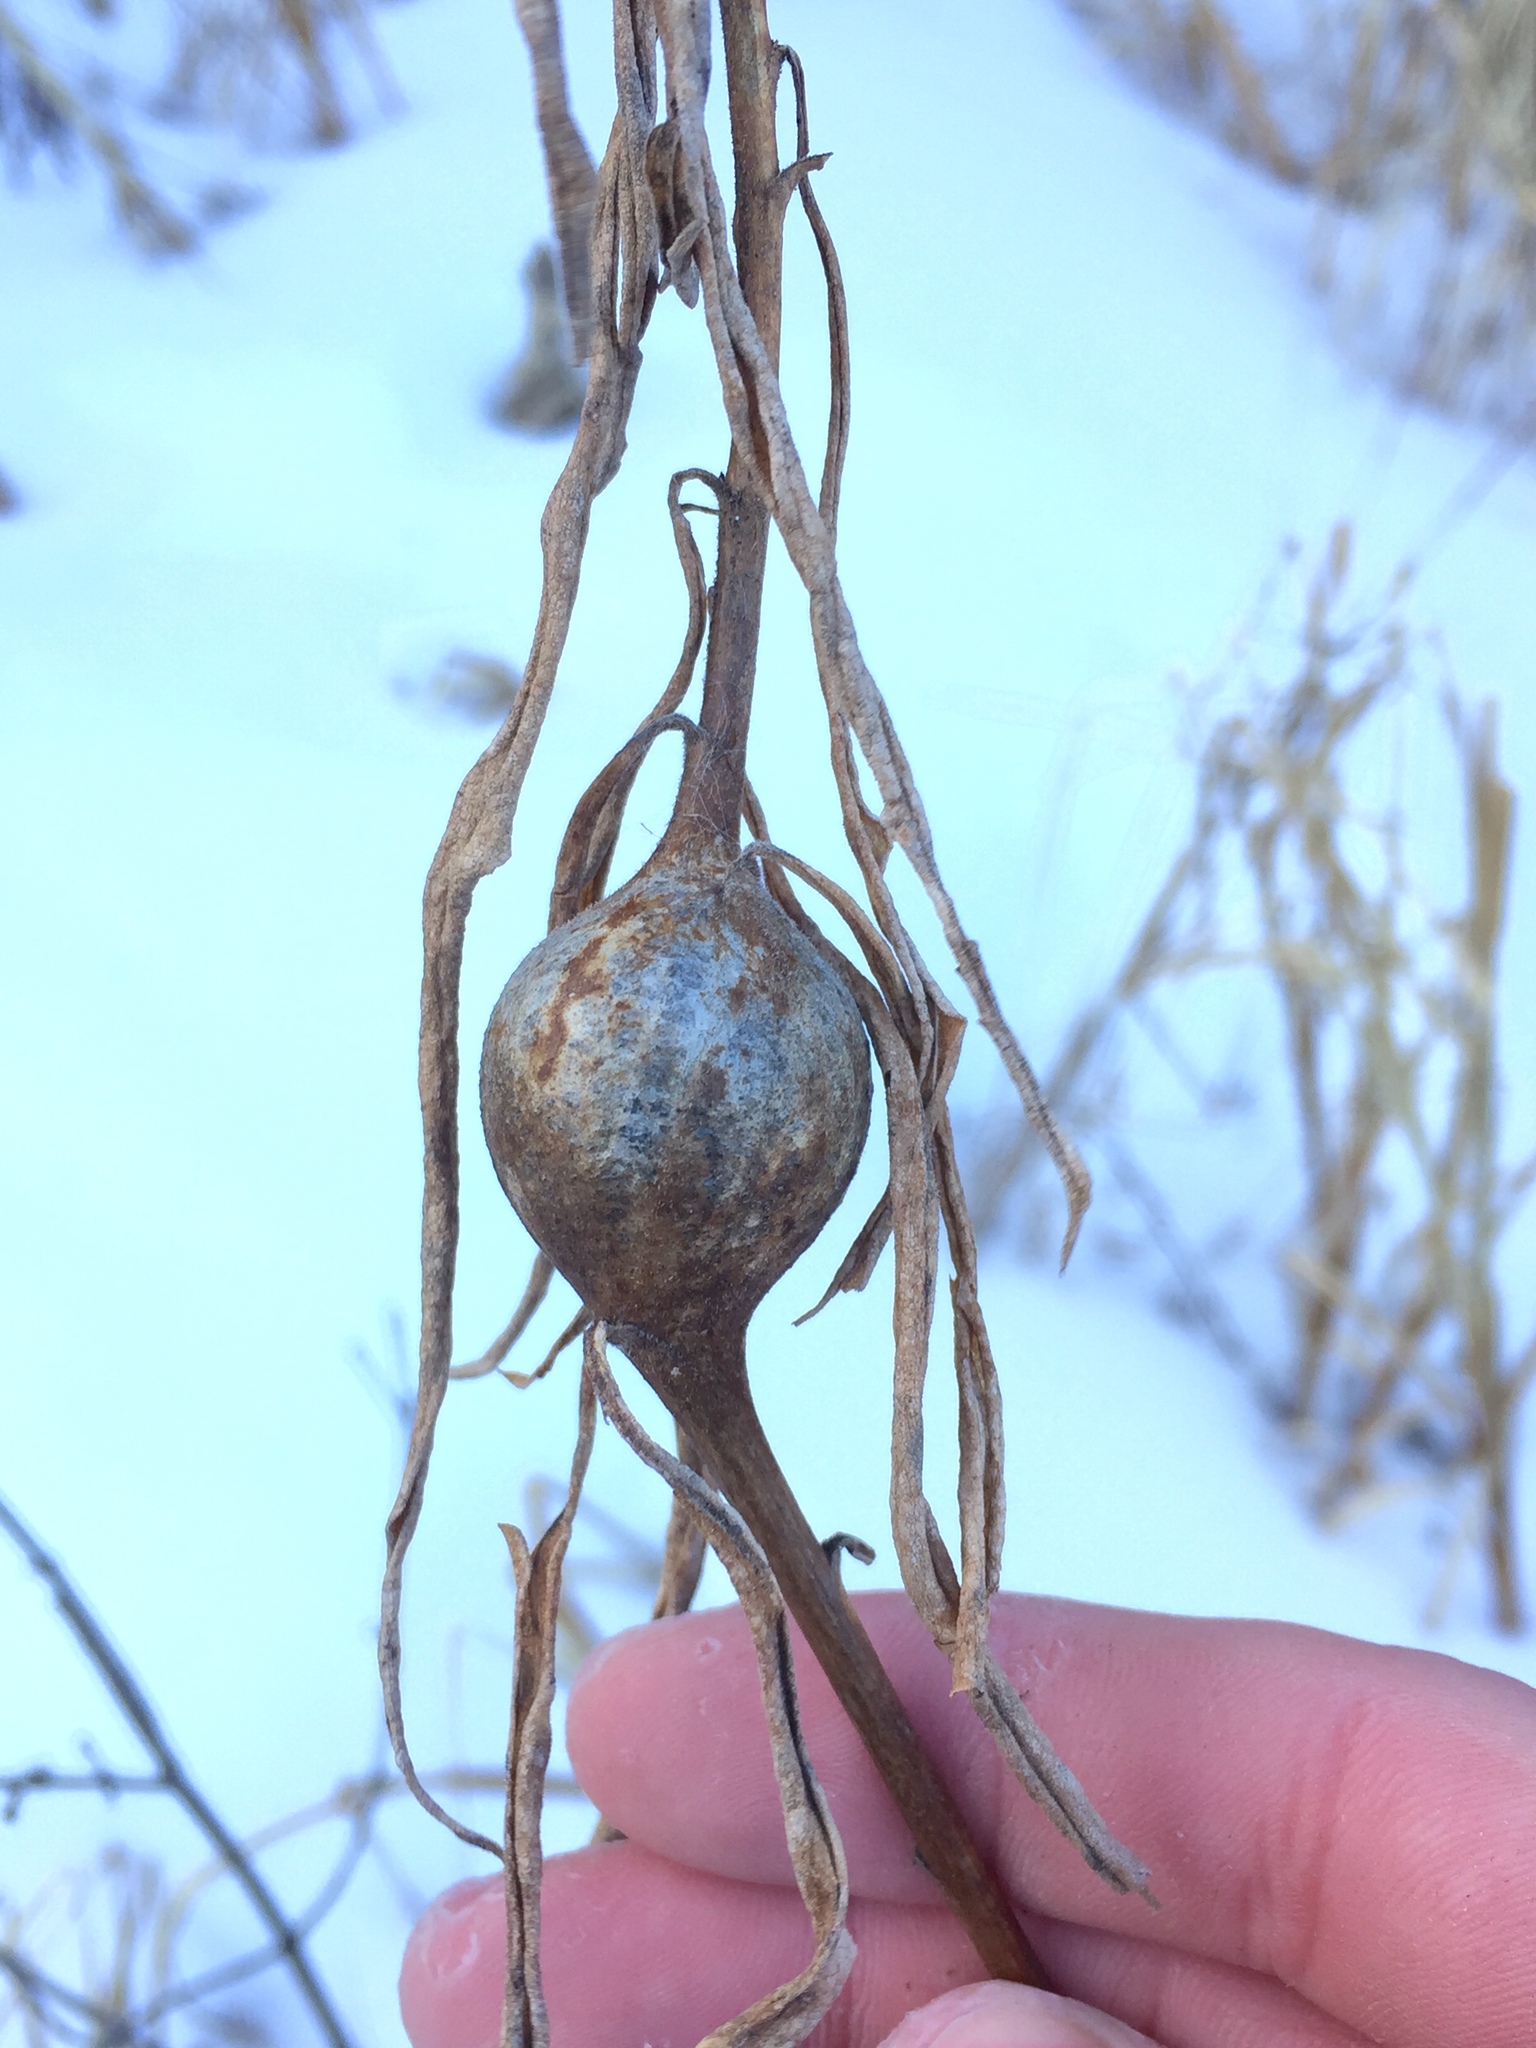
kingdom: Animalia
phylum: Arthropoda
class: Insecta
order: Diptera
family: Tephritidae
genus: Eurosta
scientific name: Eurosta solidaginis
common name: Goldenrod gall fly
